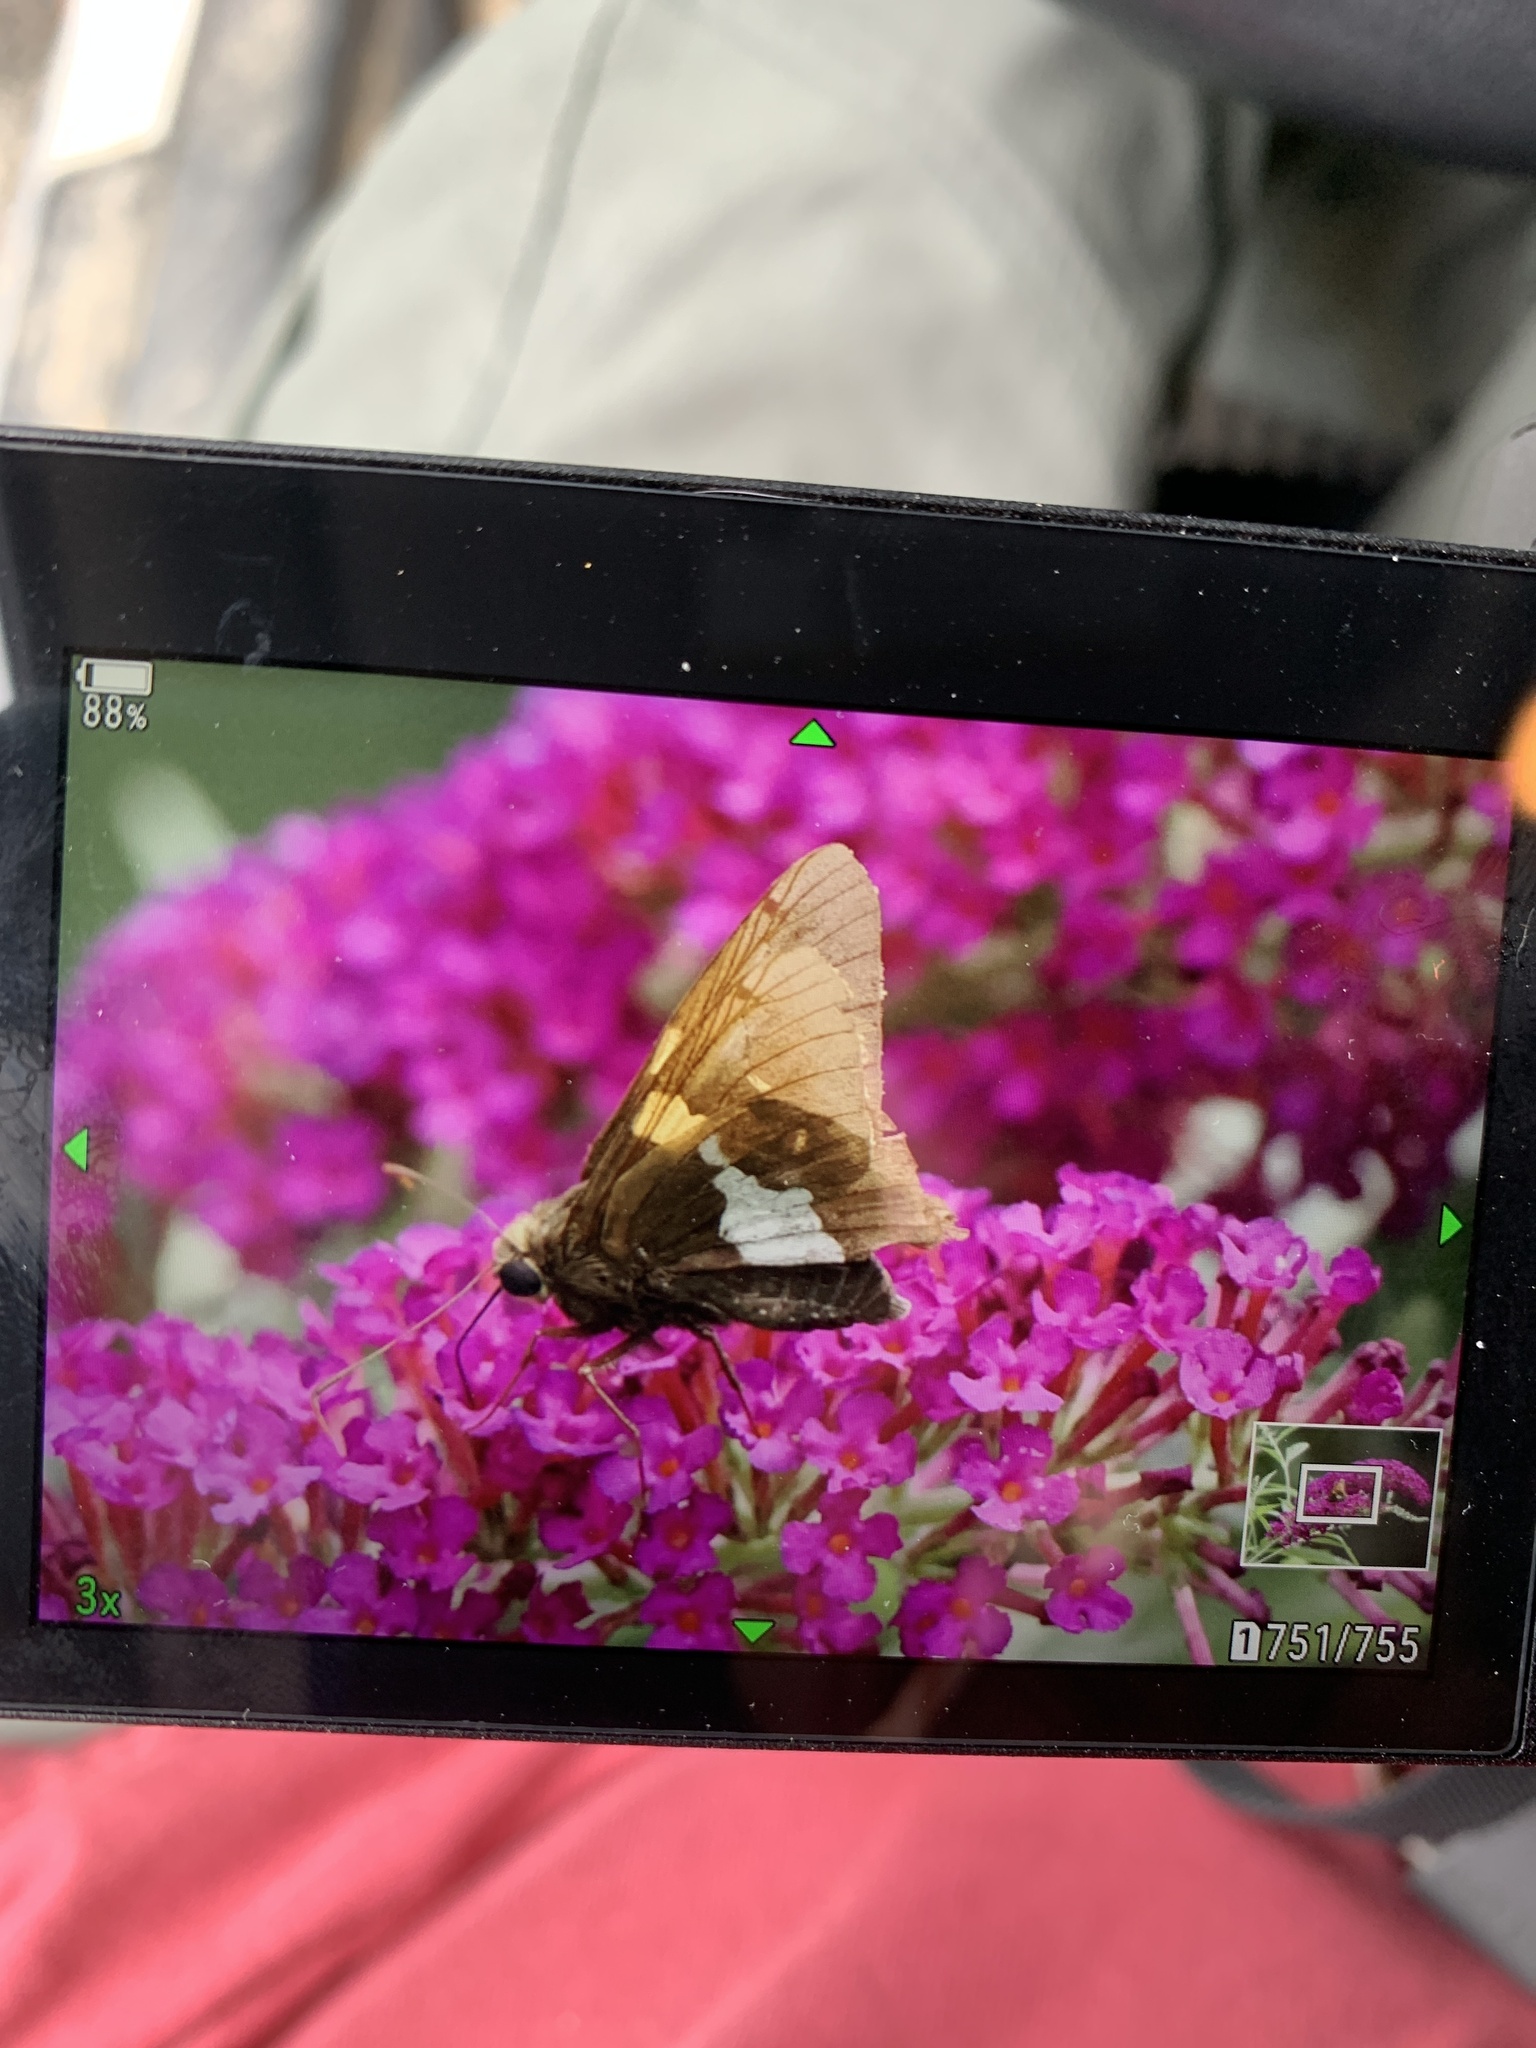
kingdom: Animalia
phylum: Arthropoda
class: Insecta
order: Lepidoptera
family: Hesperiidae
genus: Epargyreus
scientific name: Epargyreus clarus
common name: Silver-spotted skipper
